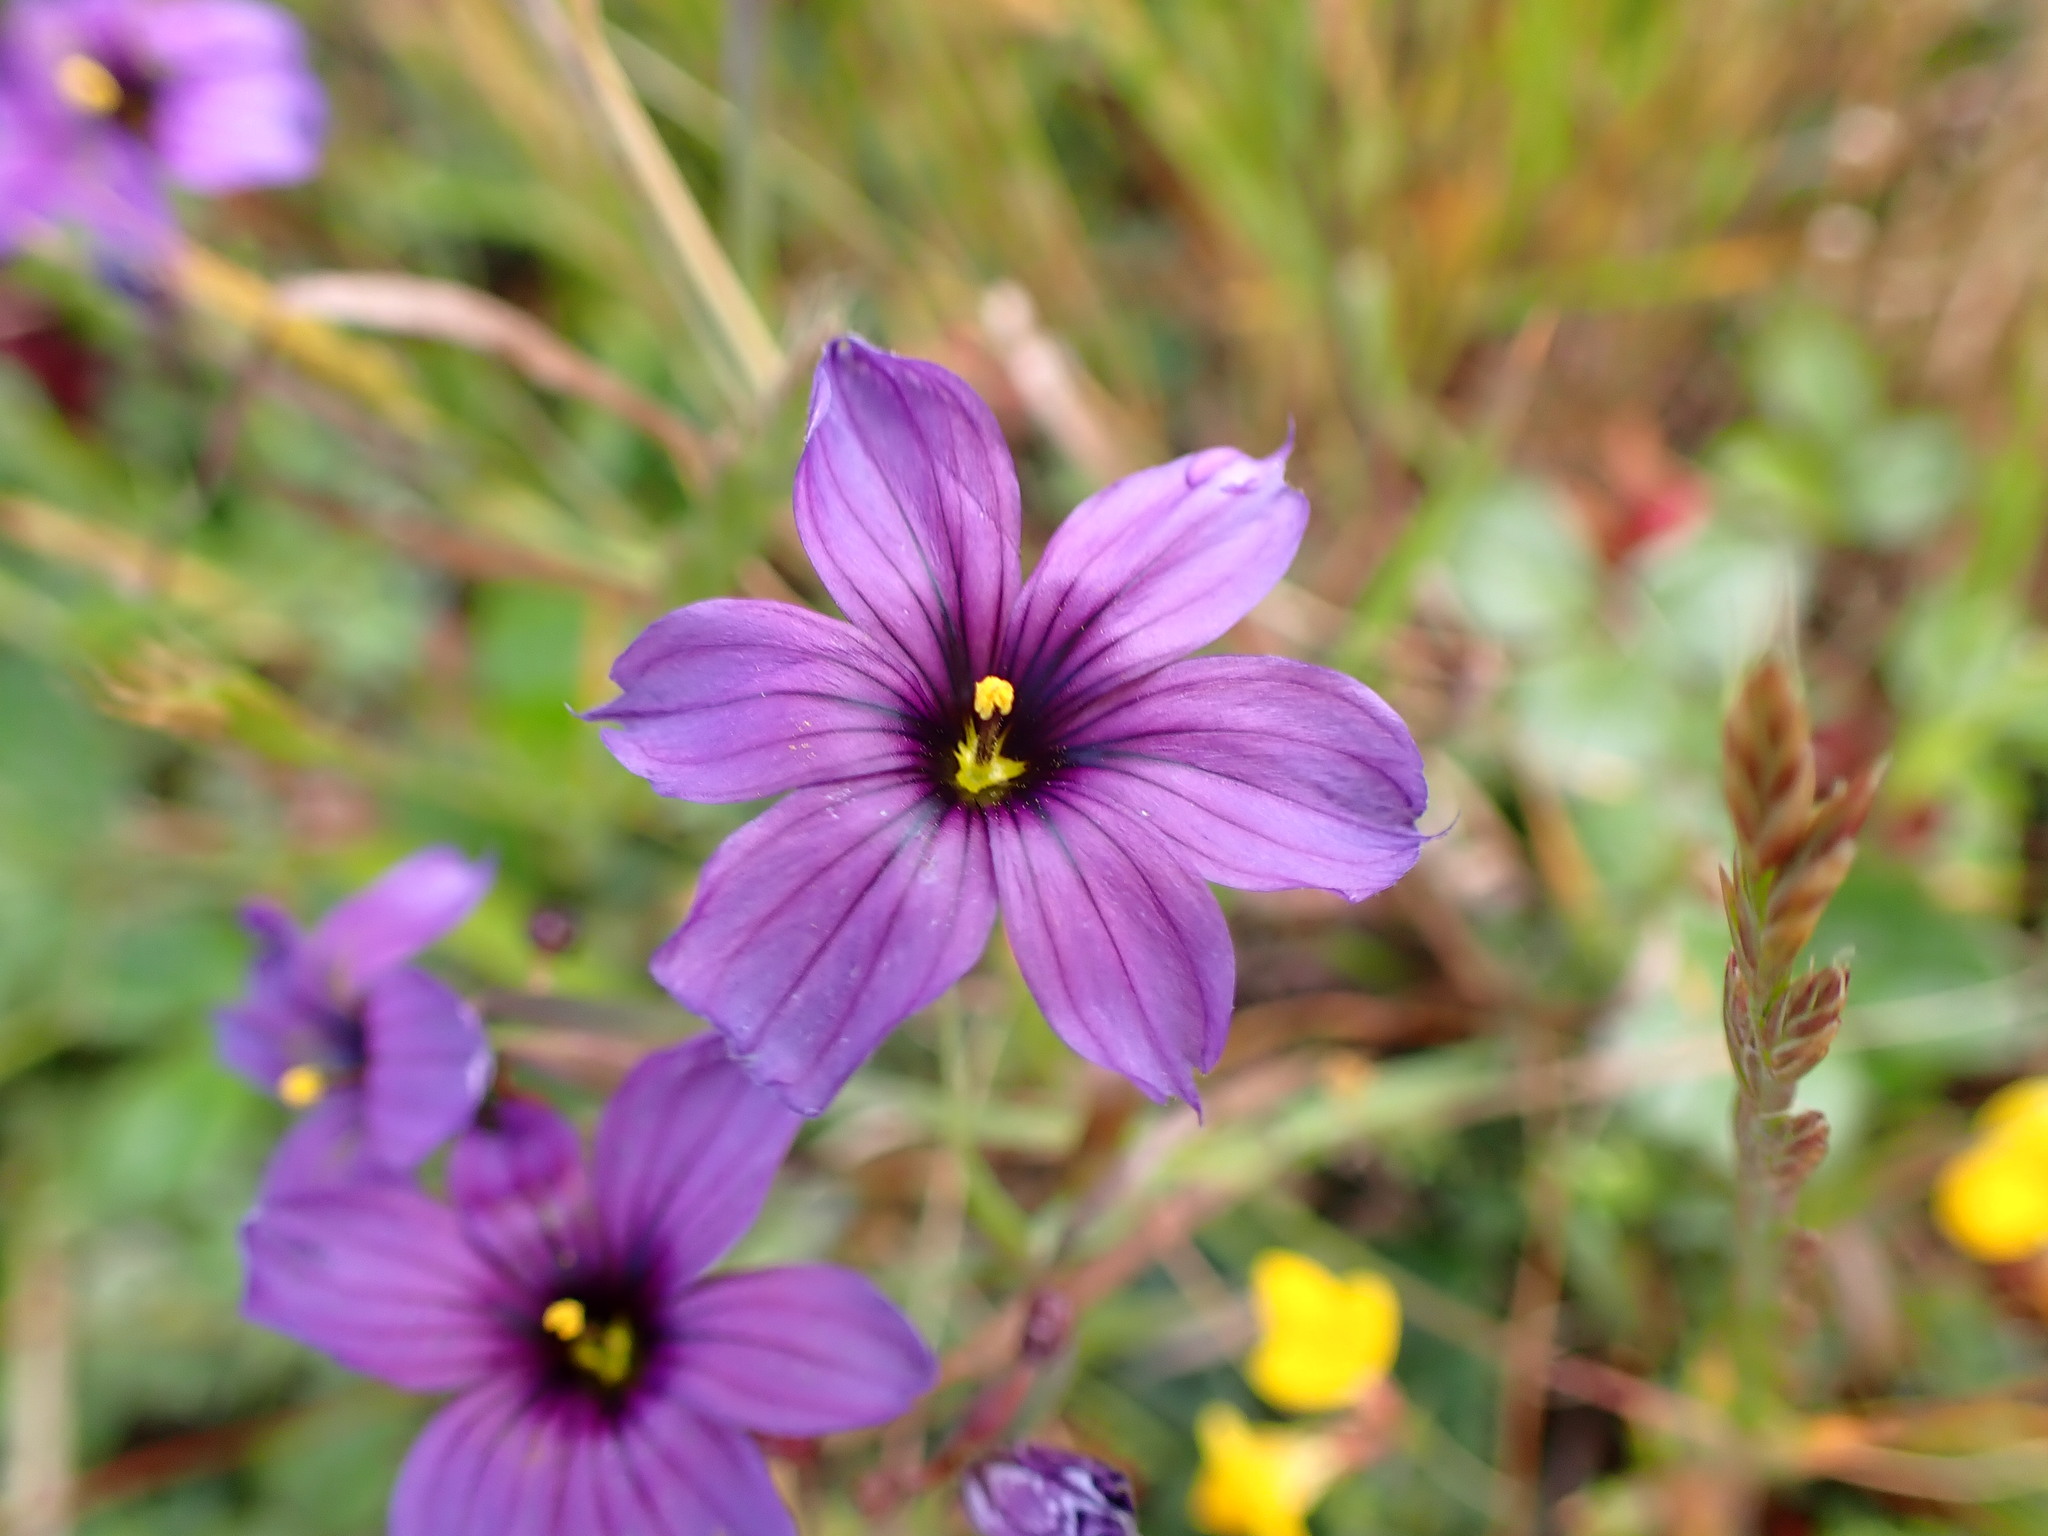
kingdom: Plantae
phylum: Tracheophyta
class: Liliopsida
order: Asparagales
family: Iridaceae
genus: Sisyrinchium
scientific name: Sisyrinchium bellum
